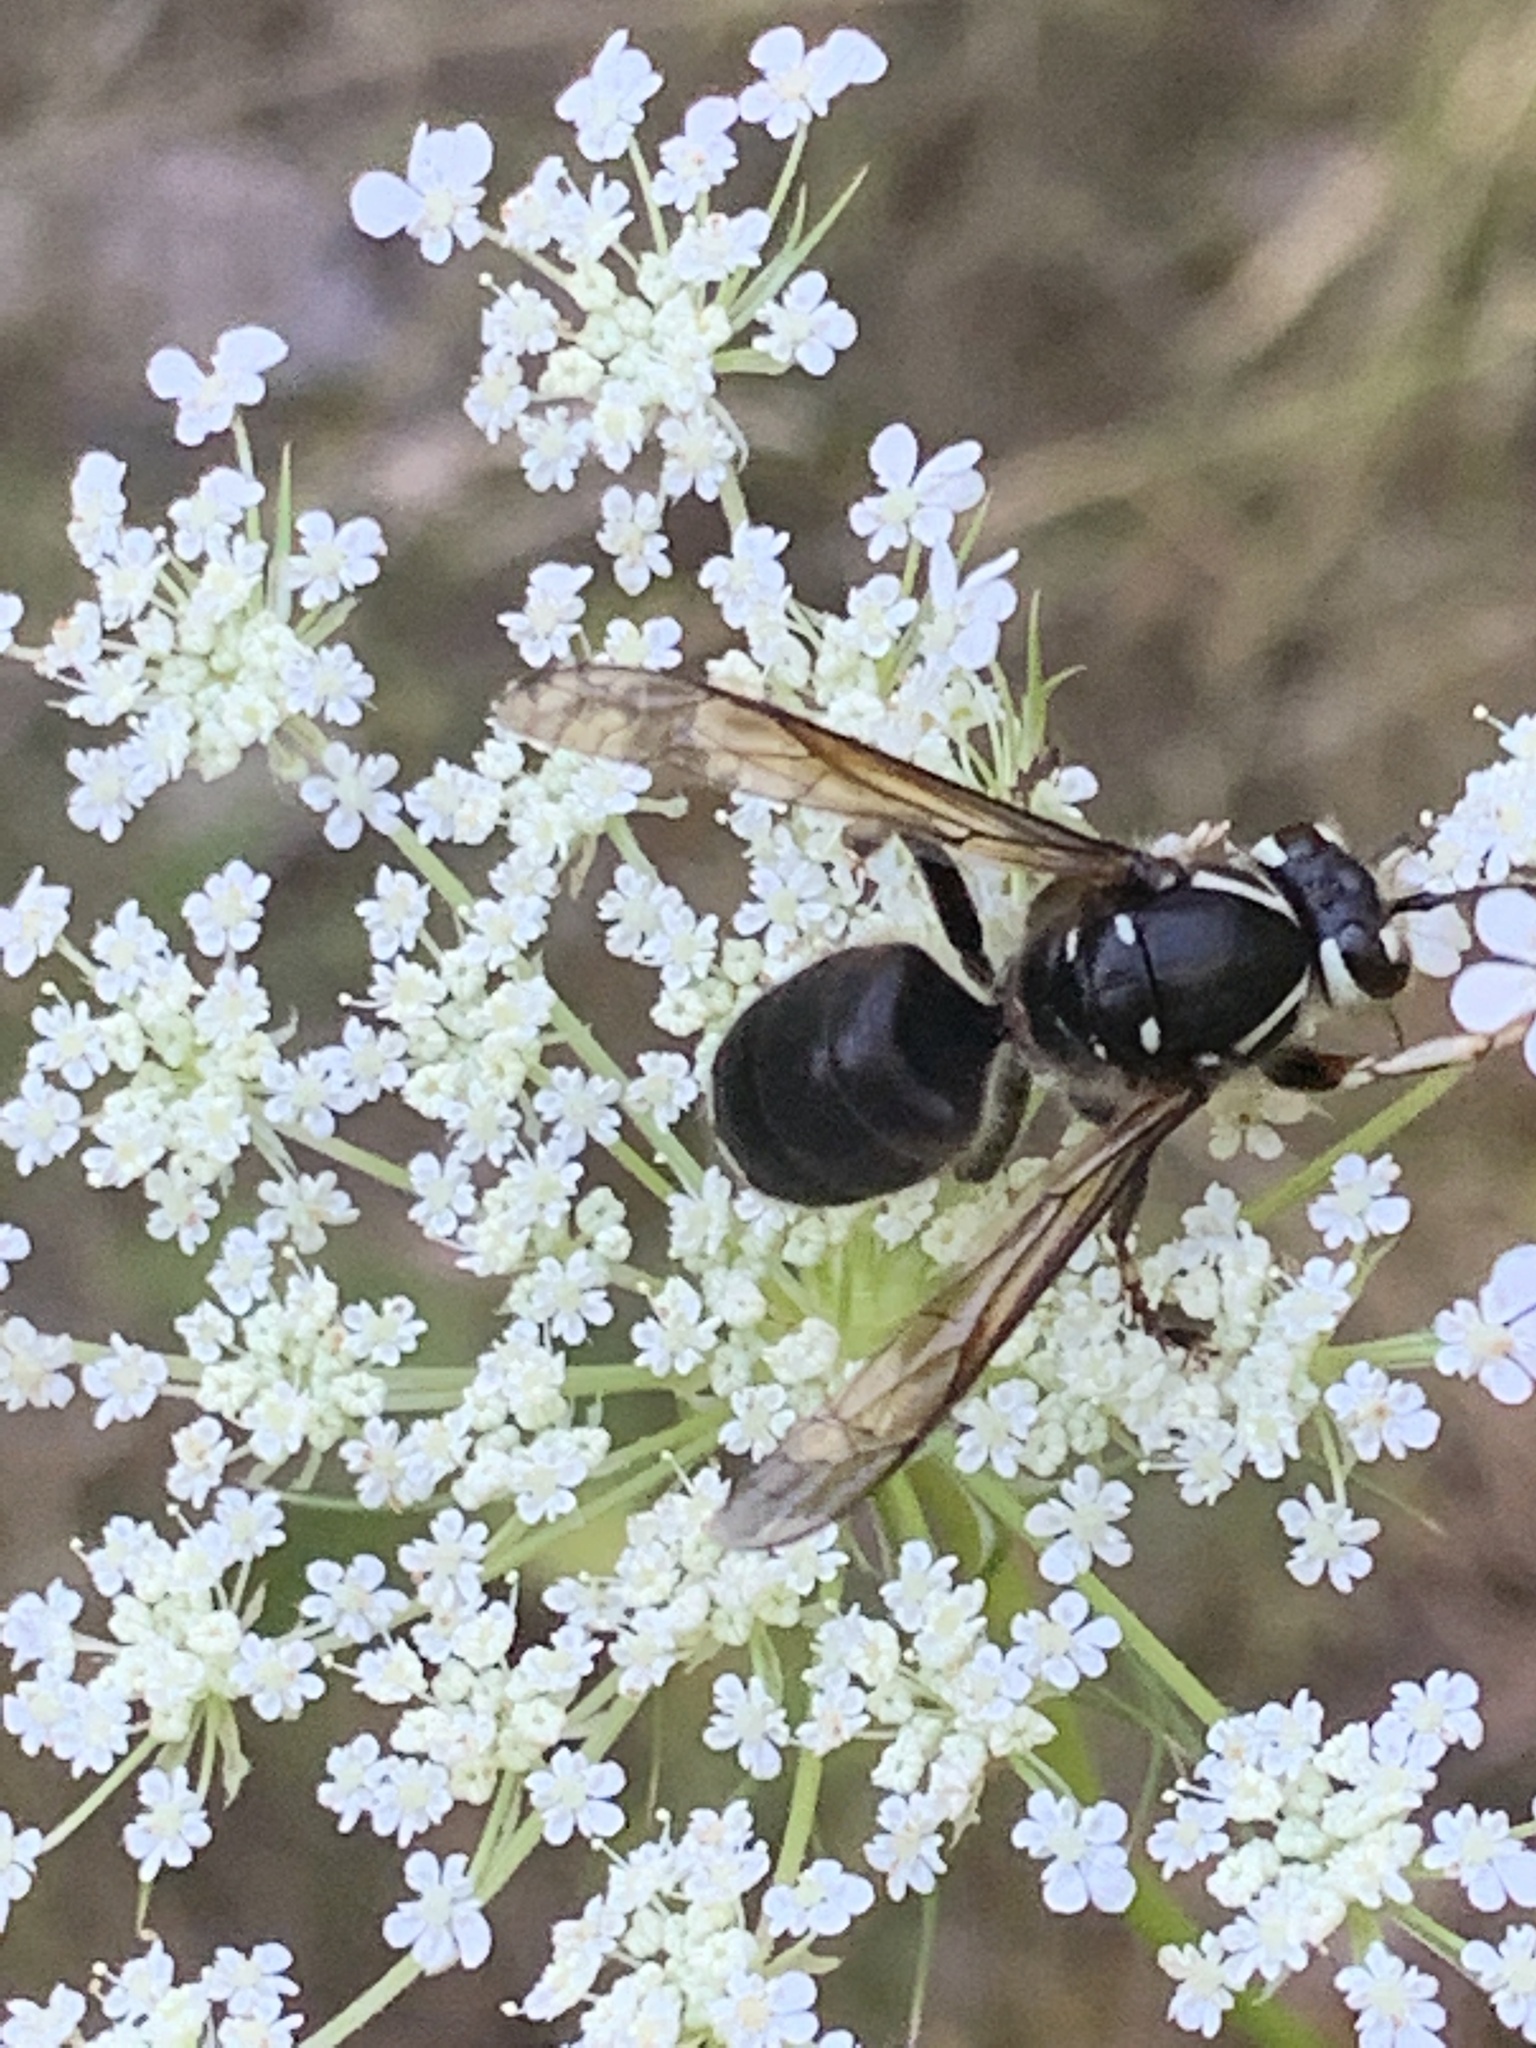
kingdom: Animalia
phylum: Arthropoda
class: Insecta
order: Hymenoptera
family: Vespidae
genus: Dolichovespula
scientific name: Dolichovespula maculata
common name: Bald-faced hornet
